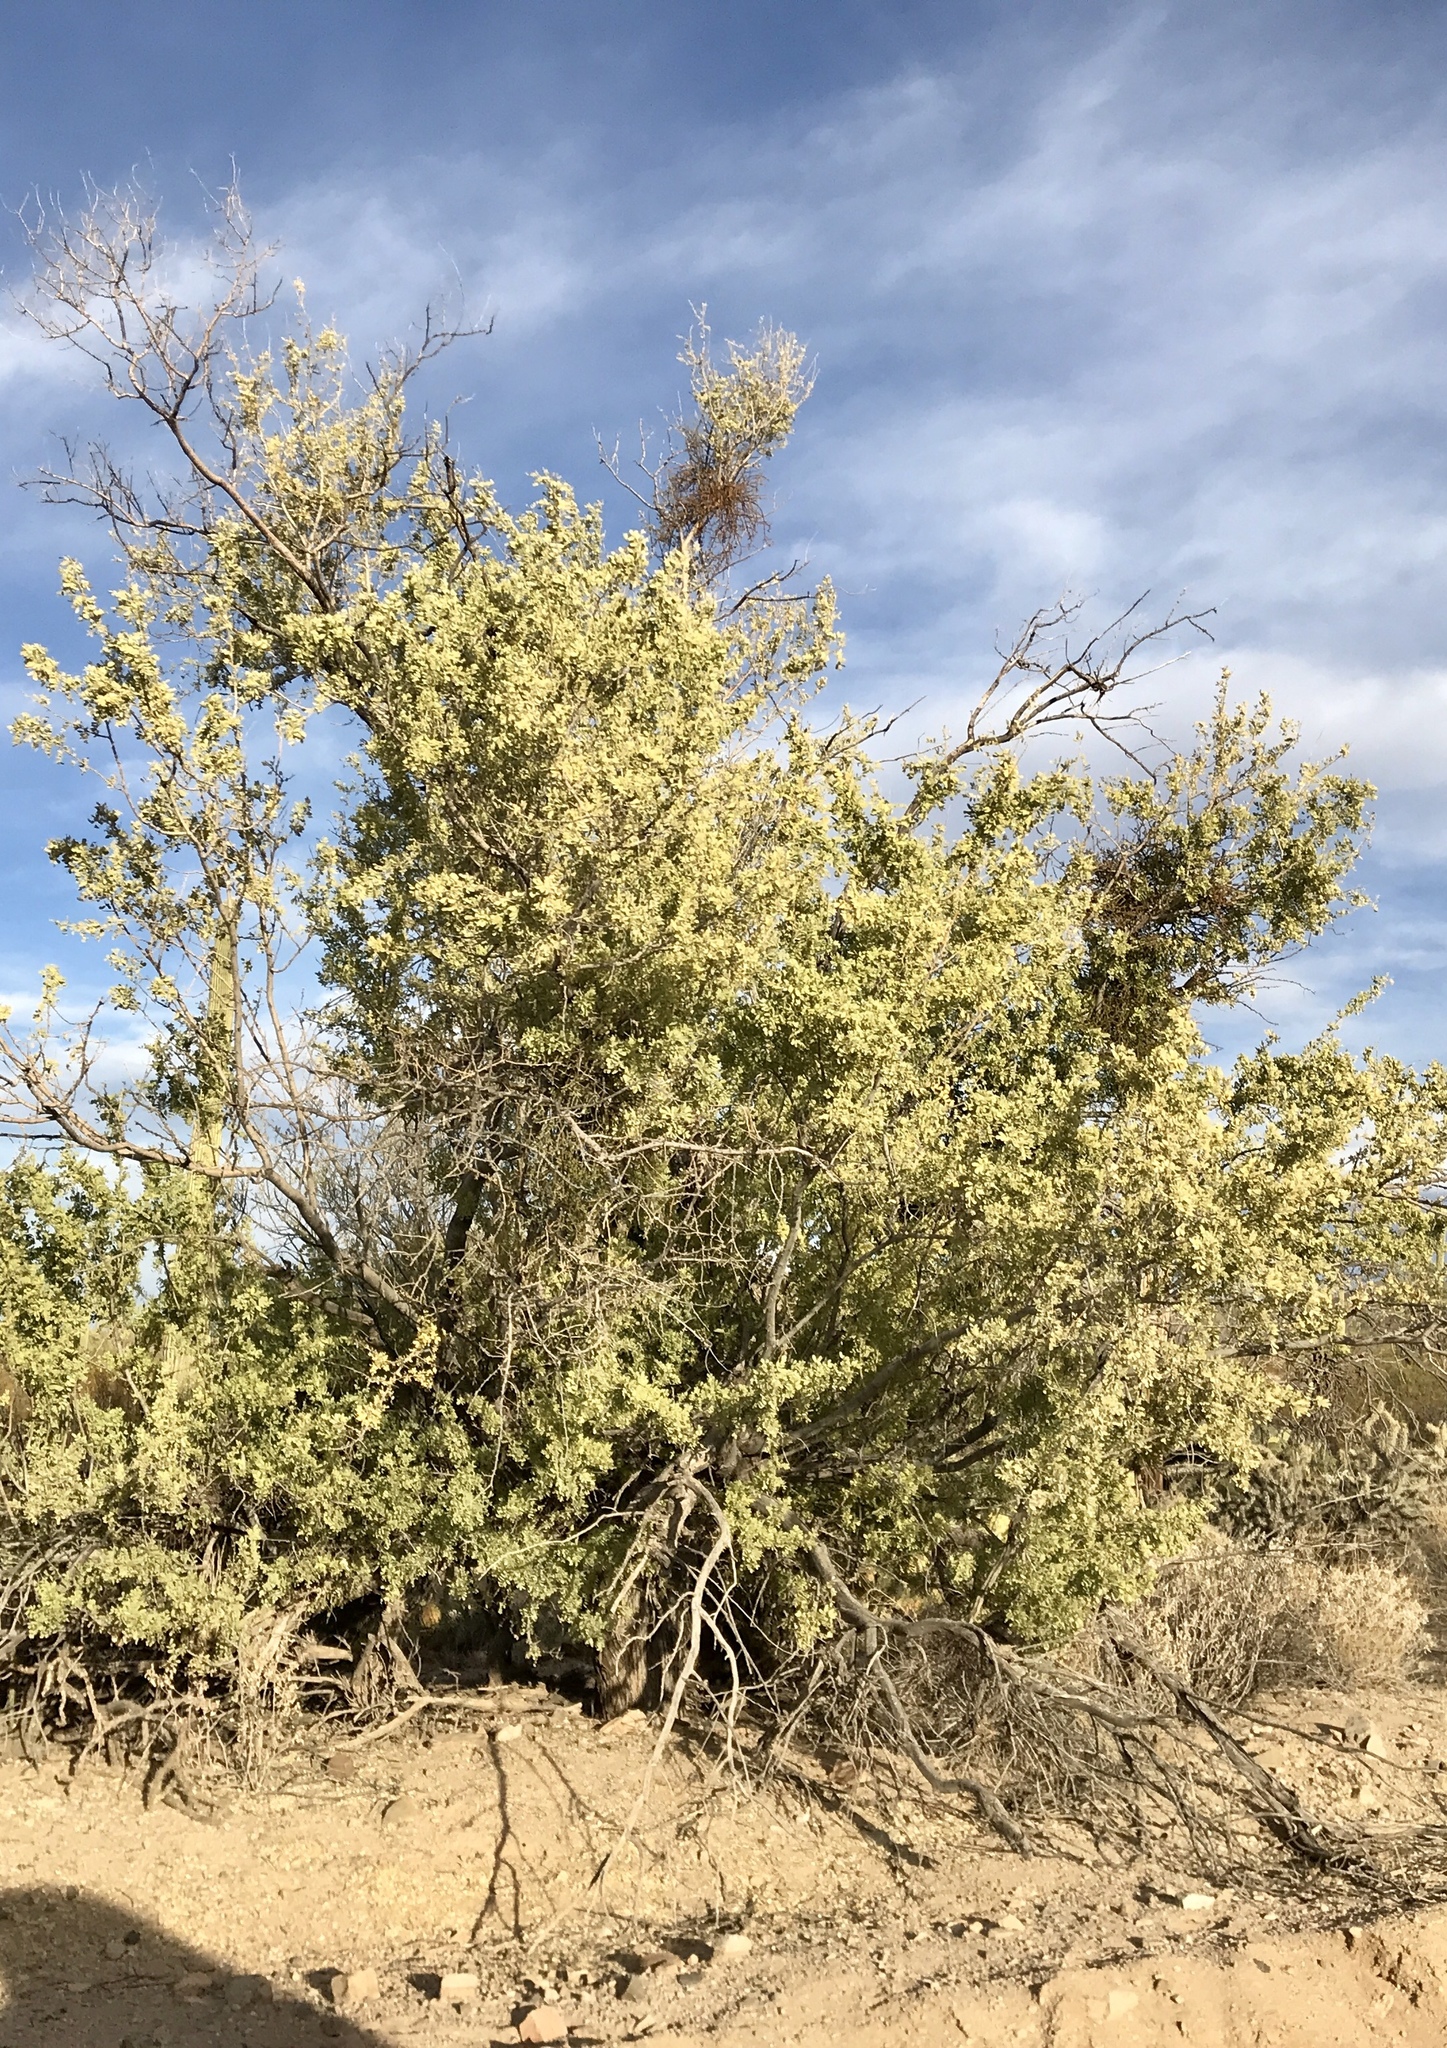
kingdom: Plantae
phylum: Tracheophyta
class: Magnoliopsida
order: Fabales
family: Fabaceae
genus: Olneya
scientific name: Olneya tesota
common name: Desert ironwood
